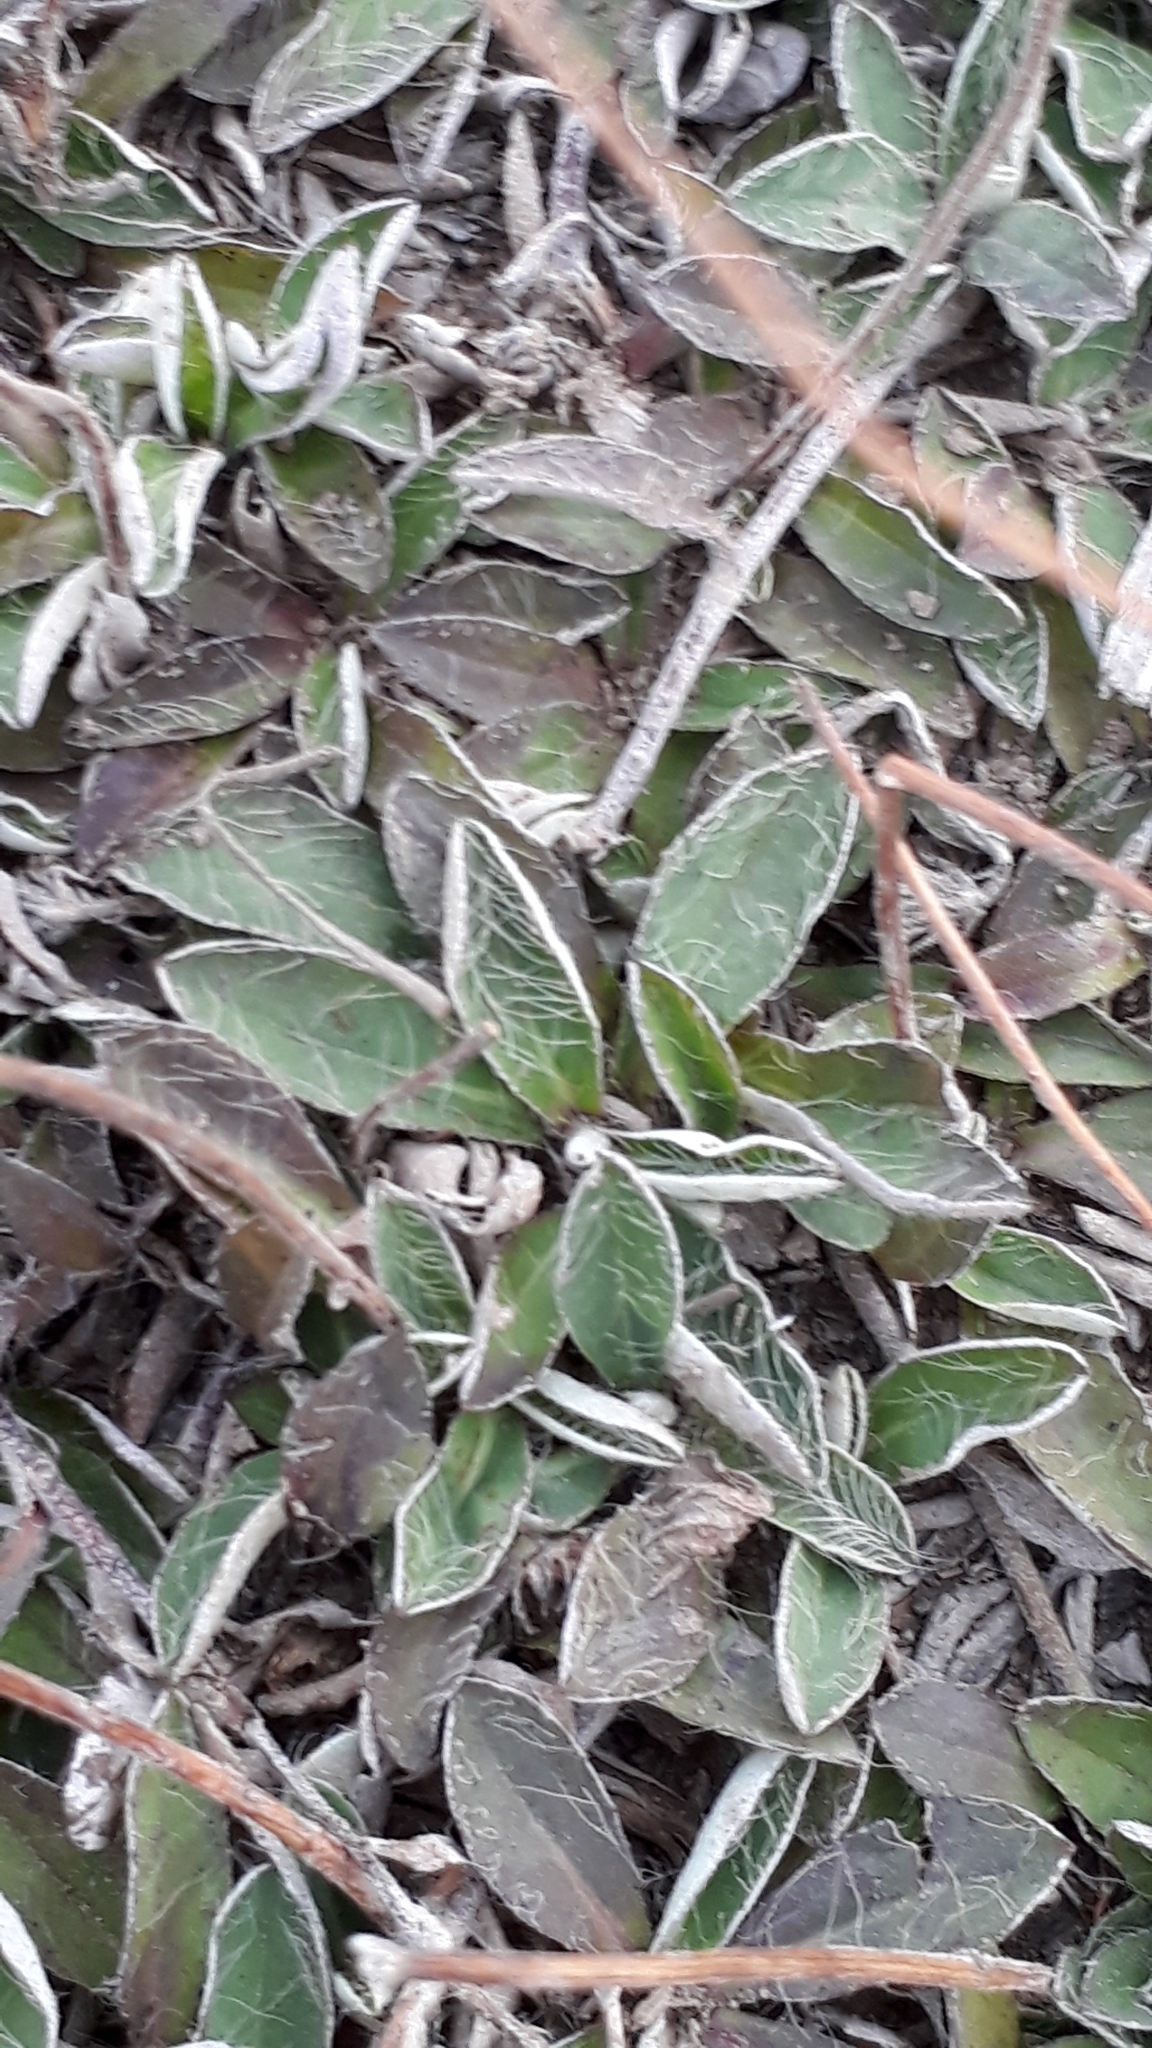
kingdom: Plantae
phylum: Tracheophyta
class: Magnoliopsida
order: Asterales
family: Asteraceae
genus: Pilosella
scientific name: Pilosella officinarum
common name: Mouse-ear hawkweed
